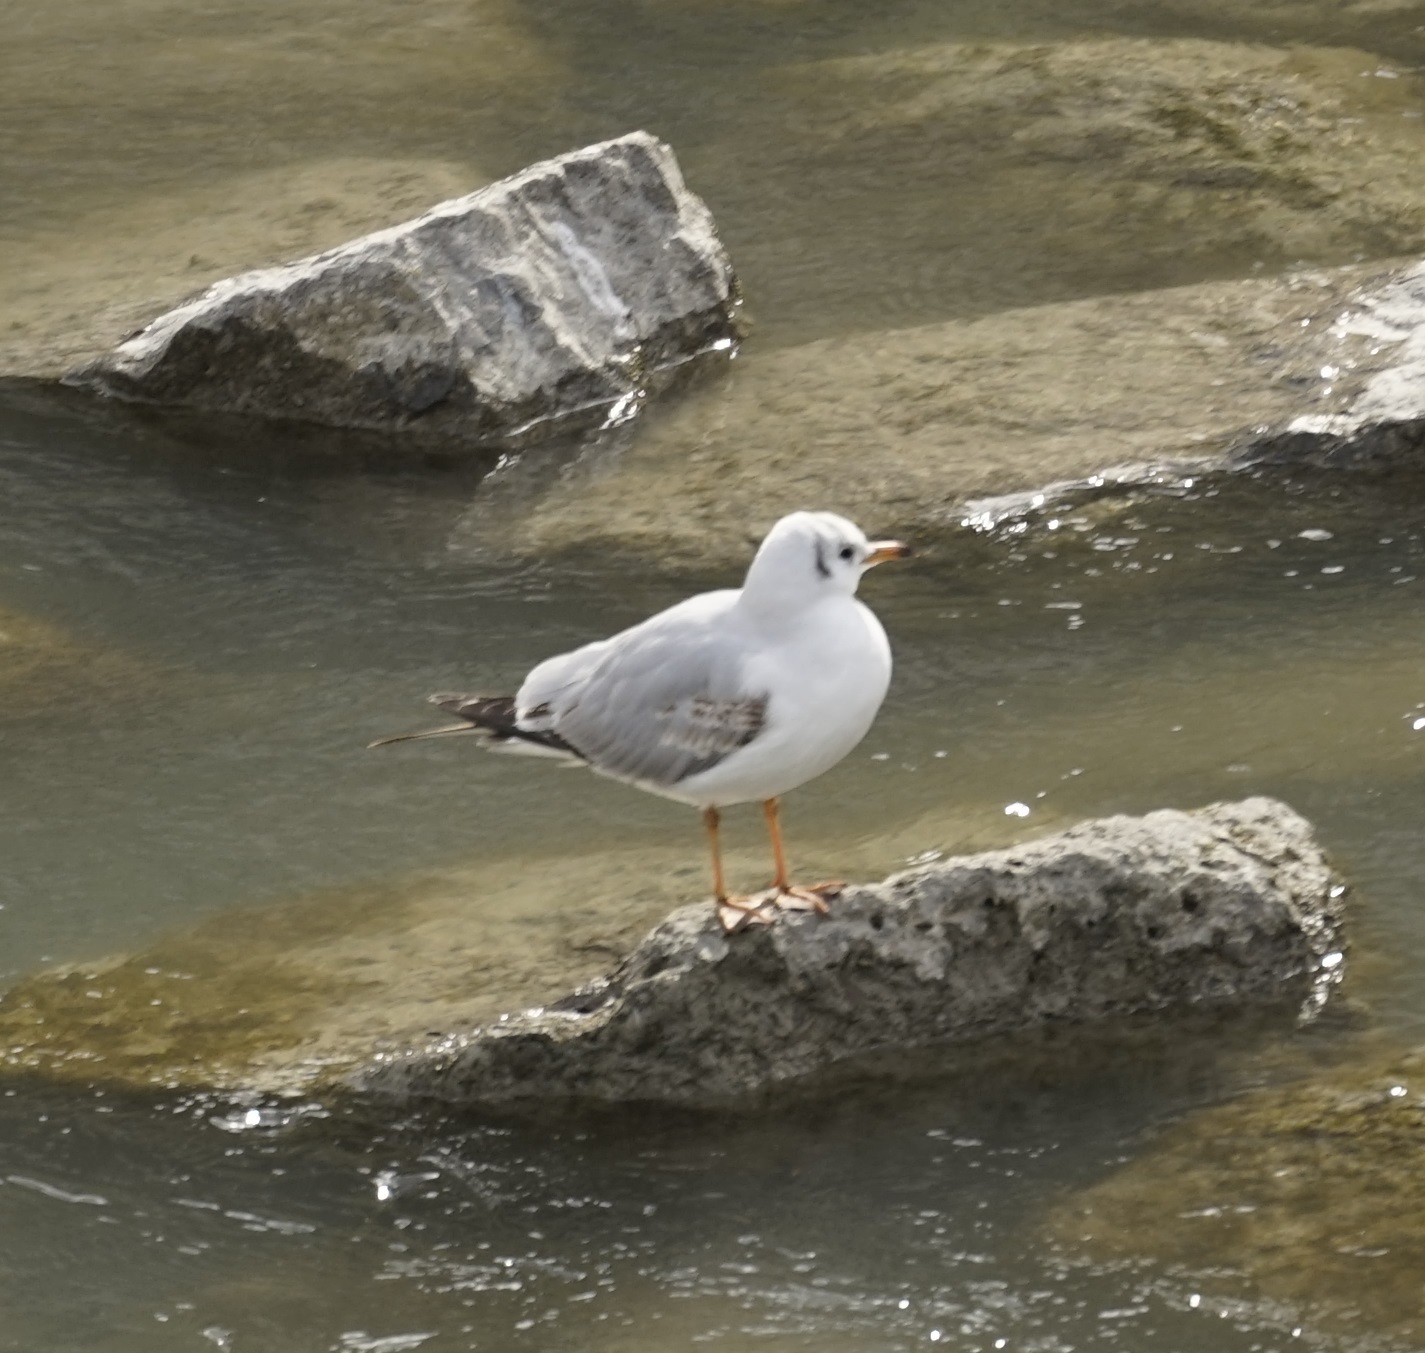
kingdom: Animalia
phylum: Chordata
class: Aves
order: Charadriiformes
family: Laridae
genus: Chroicocephalus
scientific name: Chroicocephalus ridibundus
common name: Black-headed gull
